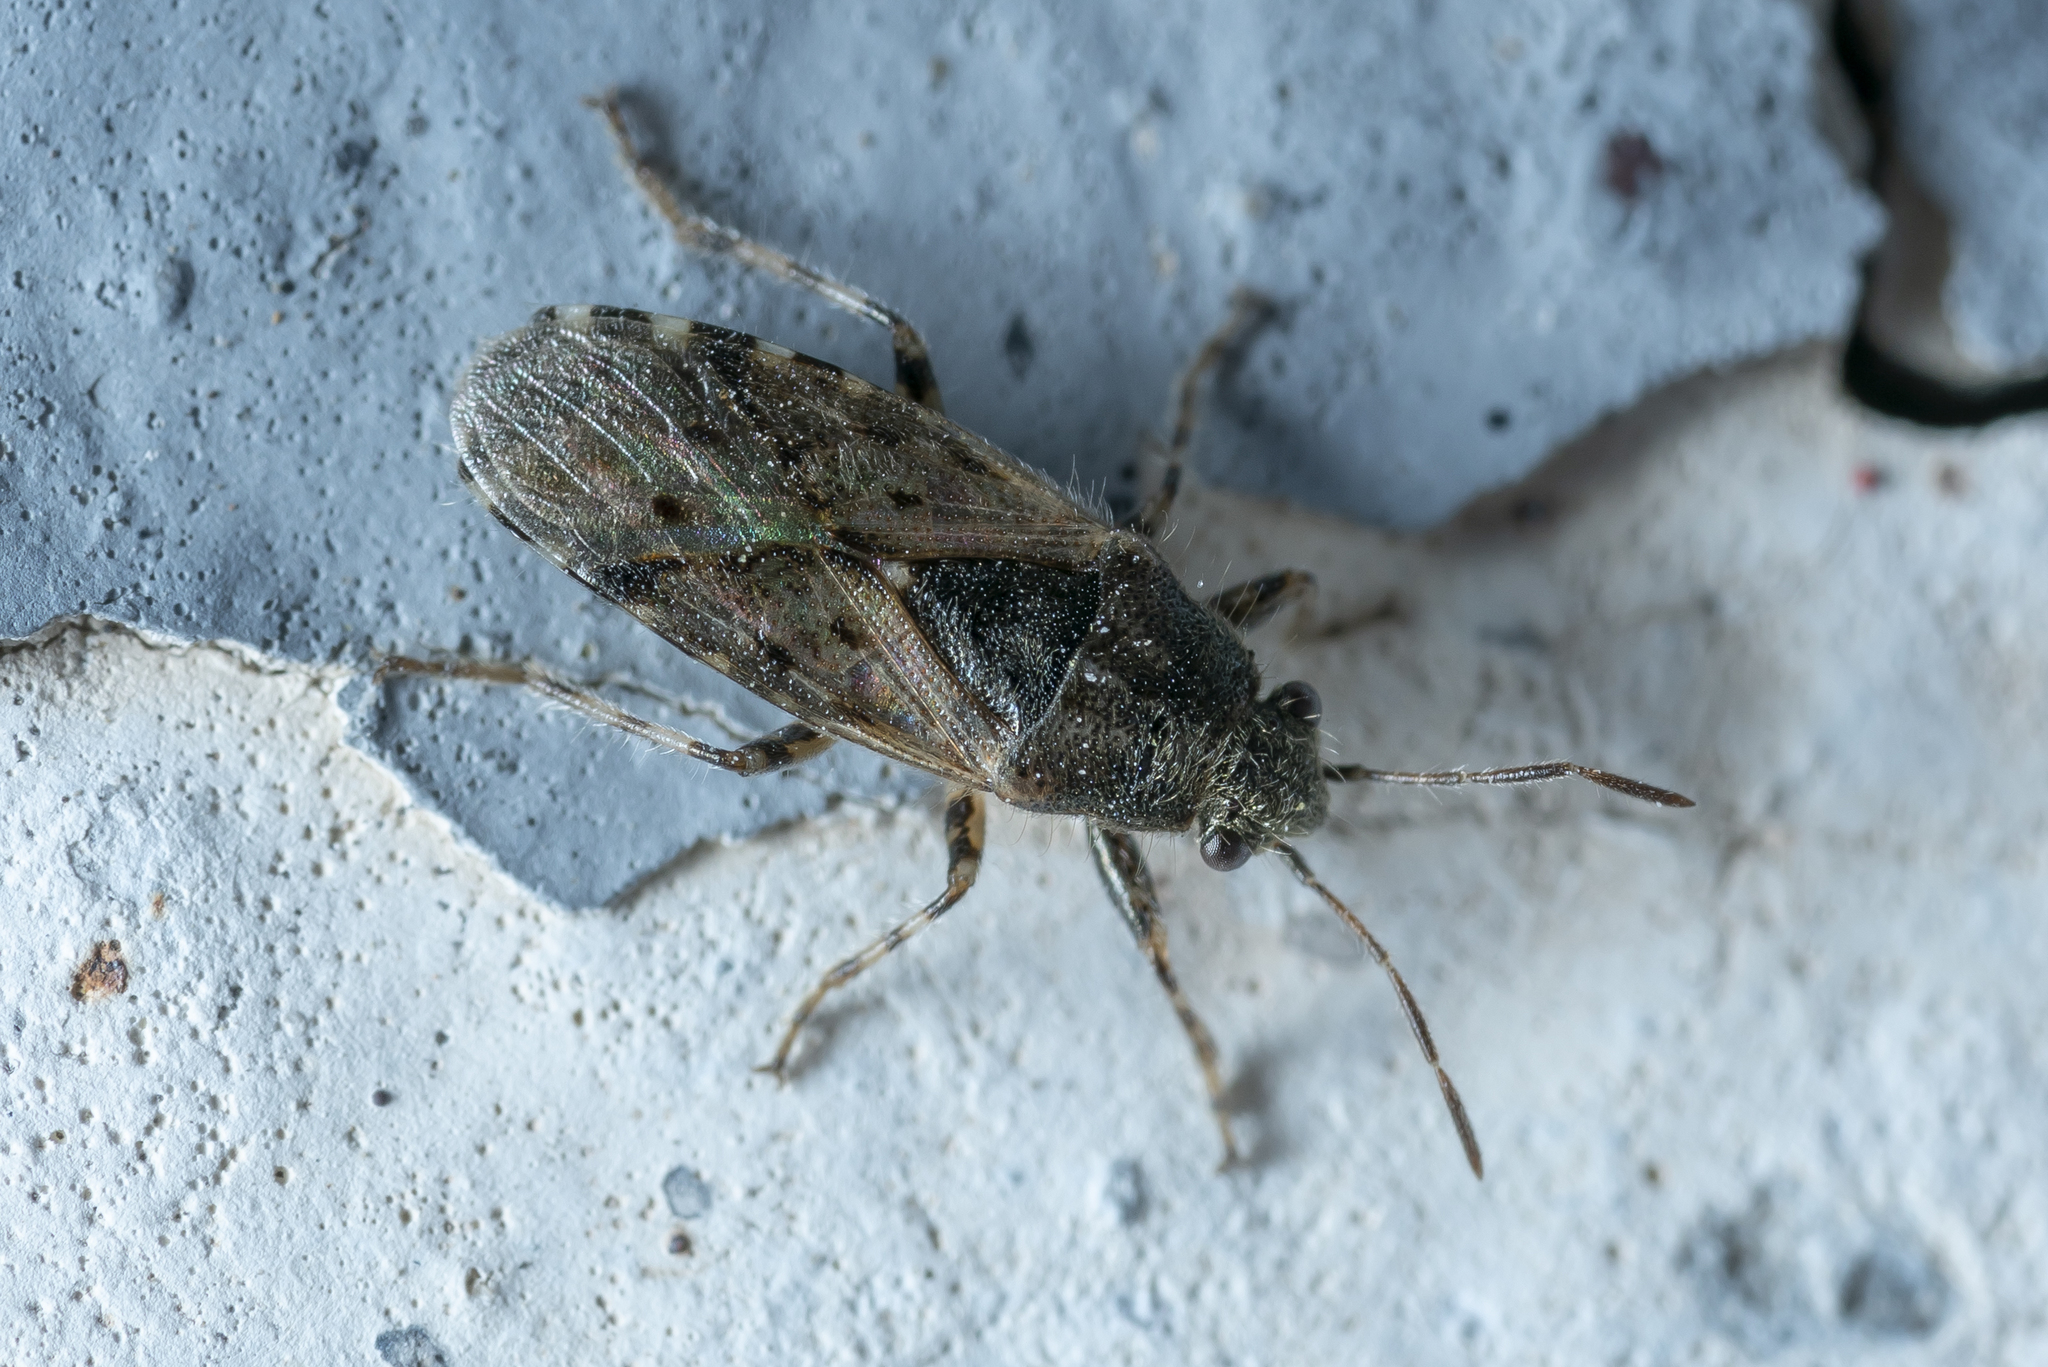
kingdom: Animalia
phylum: Arthropoda
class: Insecta
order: Hemiptera
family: Heterogastridae
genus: Heterogaster
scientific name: Heterogaster urticae
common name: Seed bug
